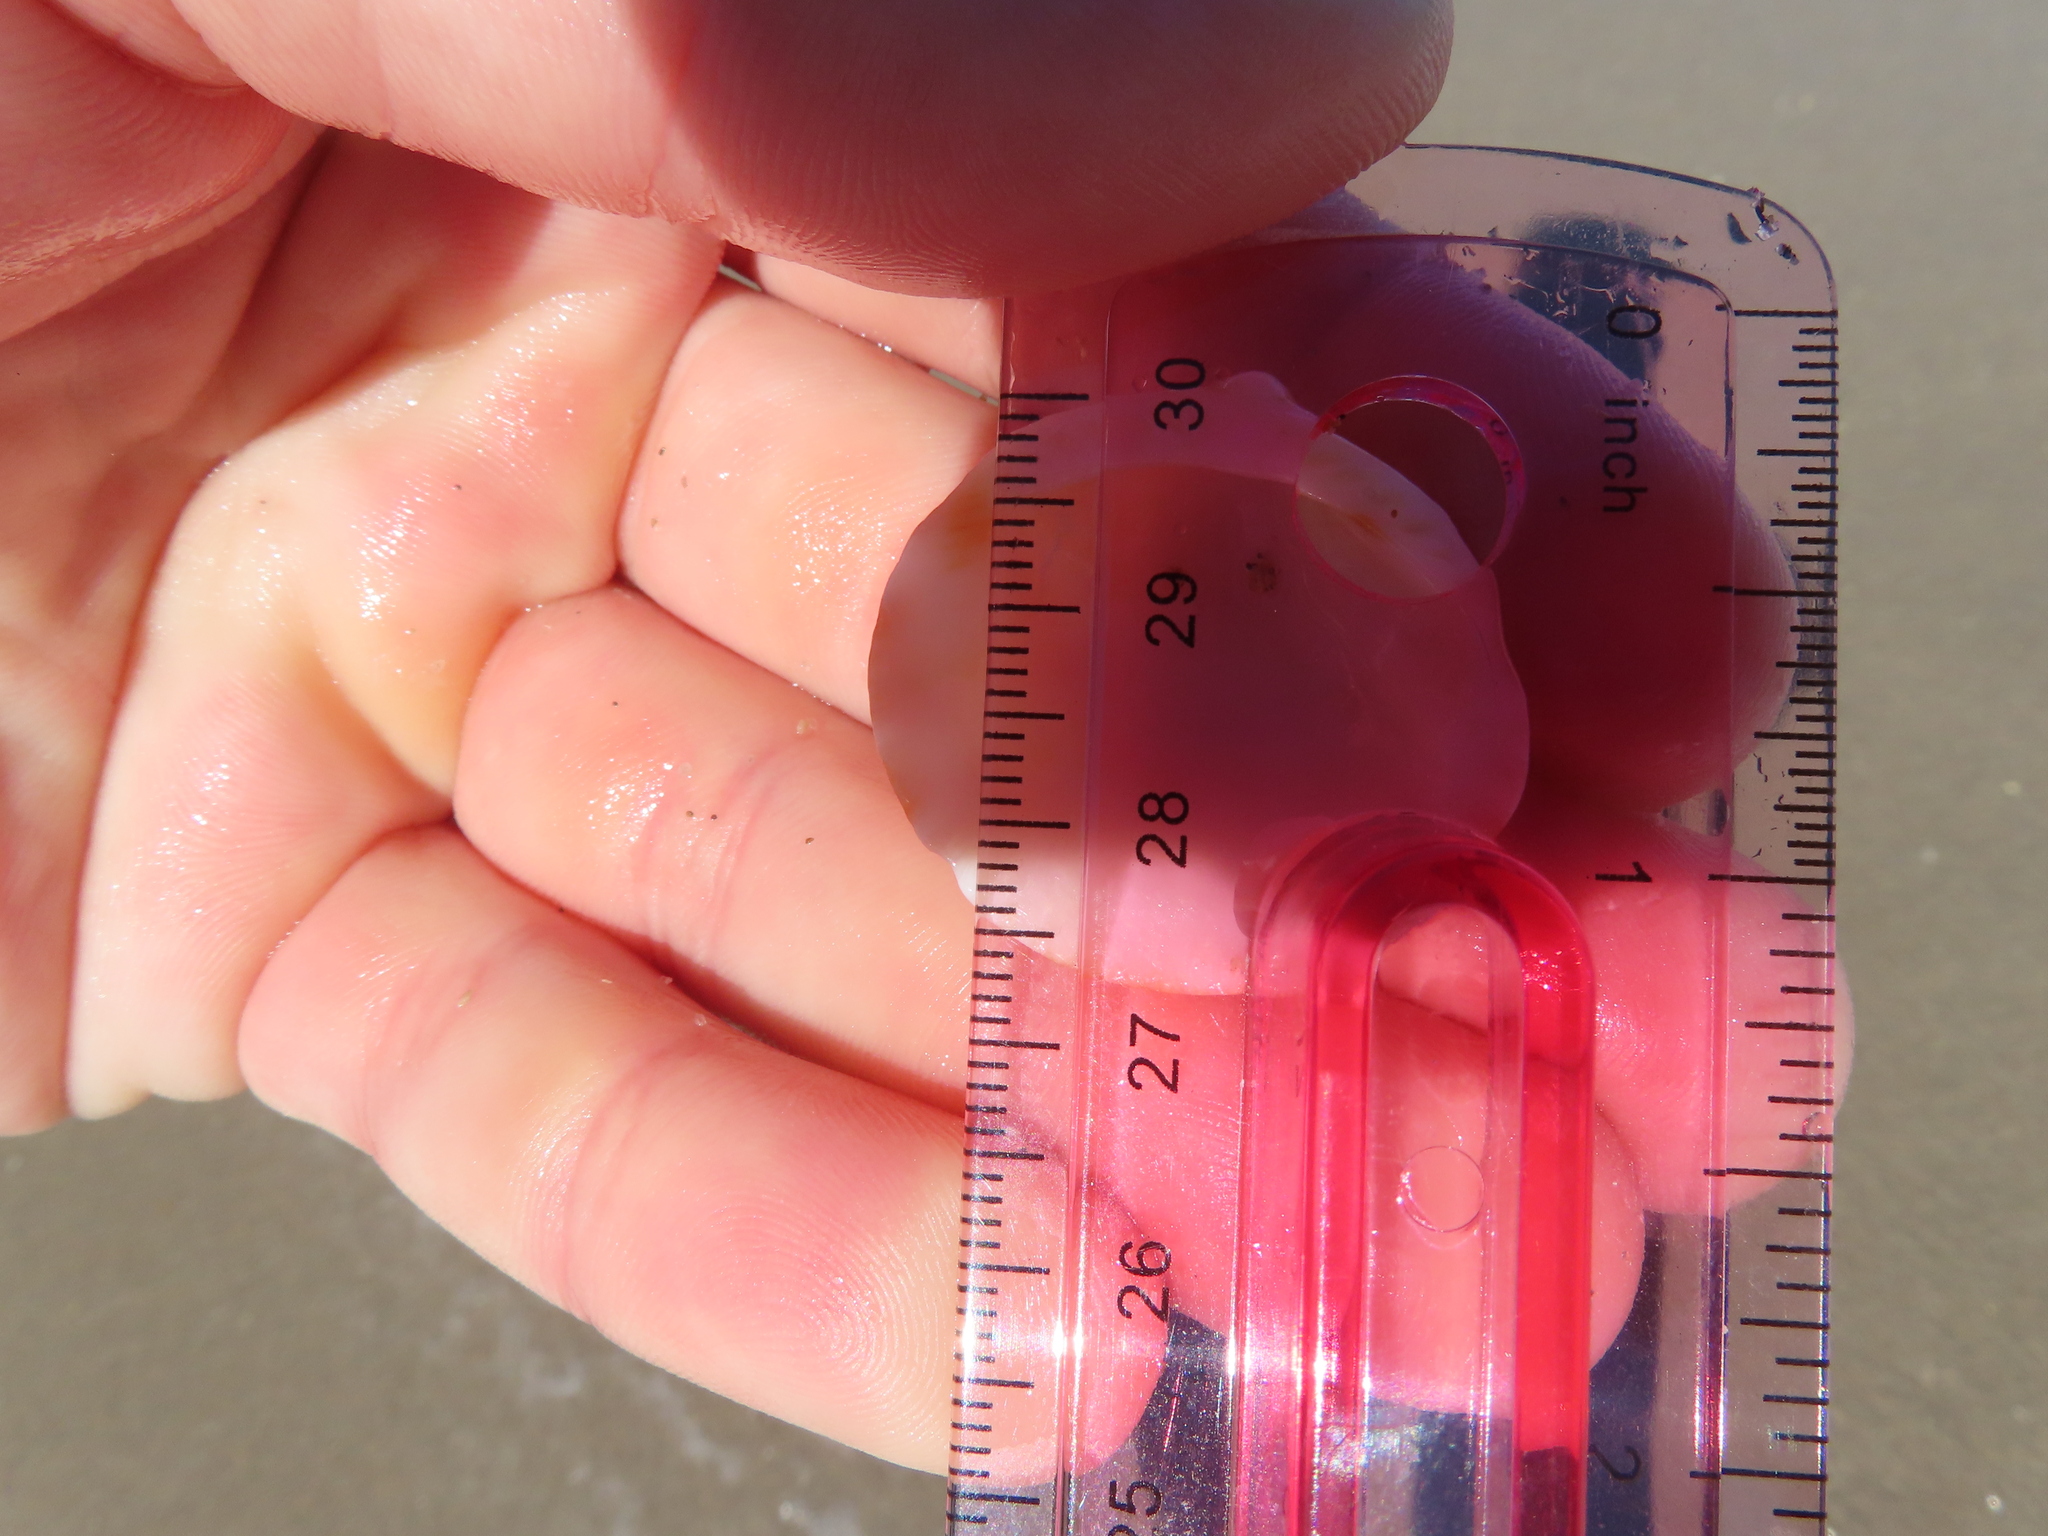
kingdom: Animalia
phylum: Mollusca
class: Bivalvia
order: Arcida
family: Glycymerididae
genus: Glycymeris
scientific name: Glycymeris americana
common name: American bittersweet
